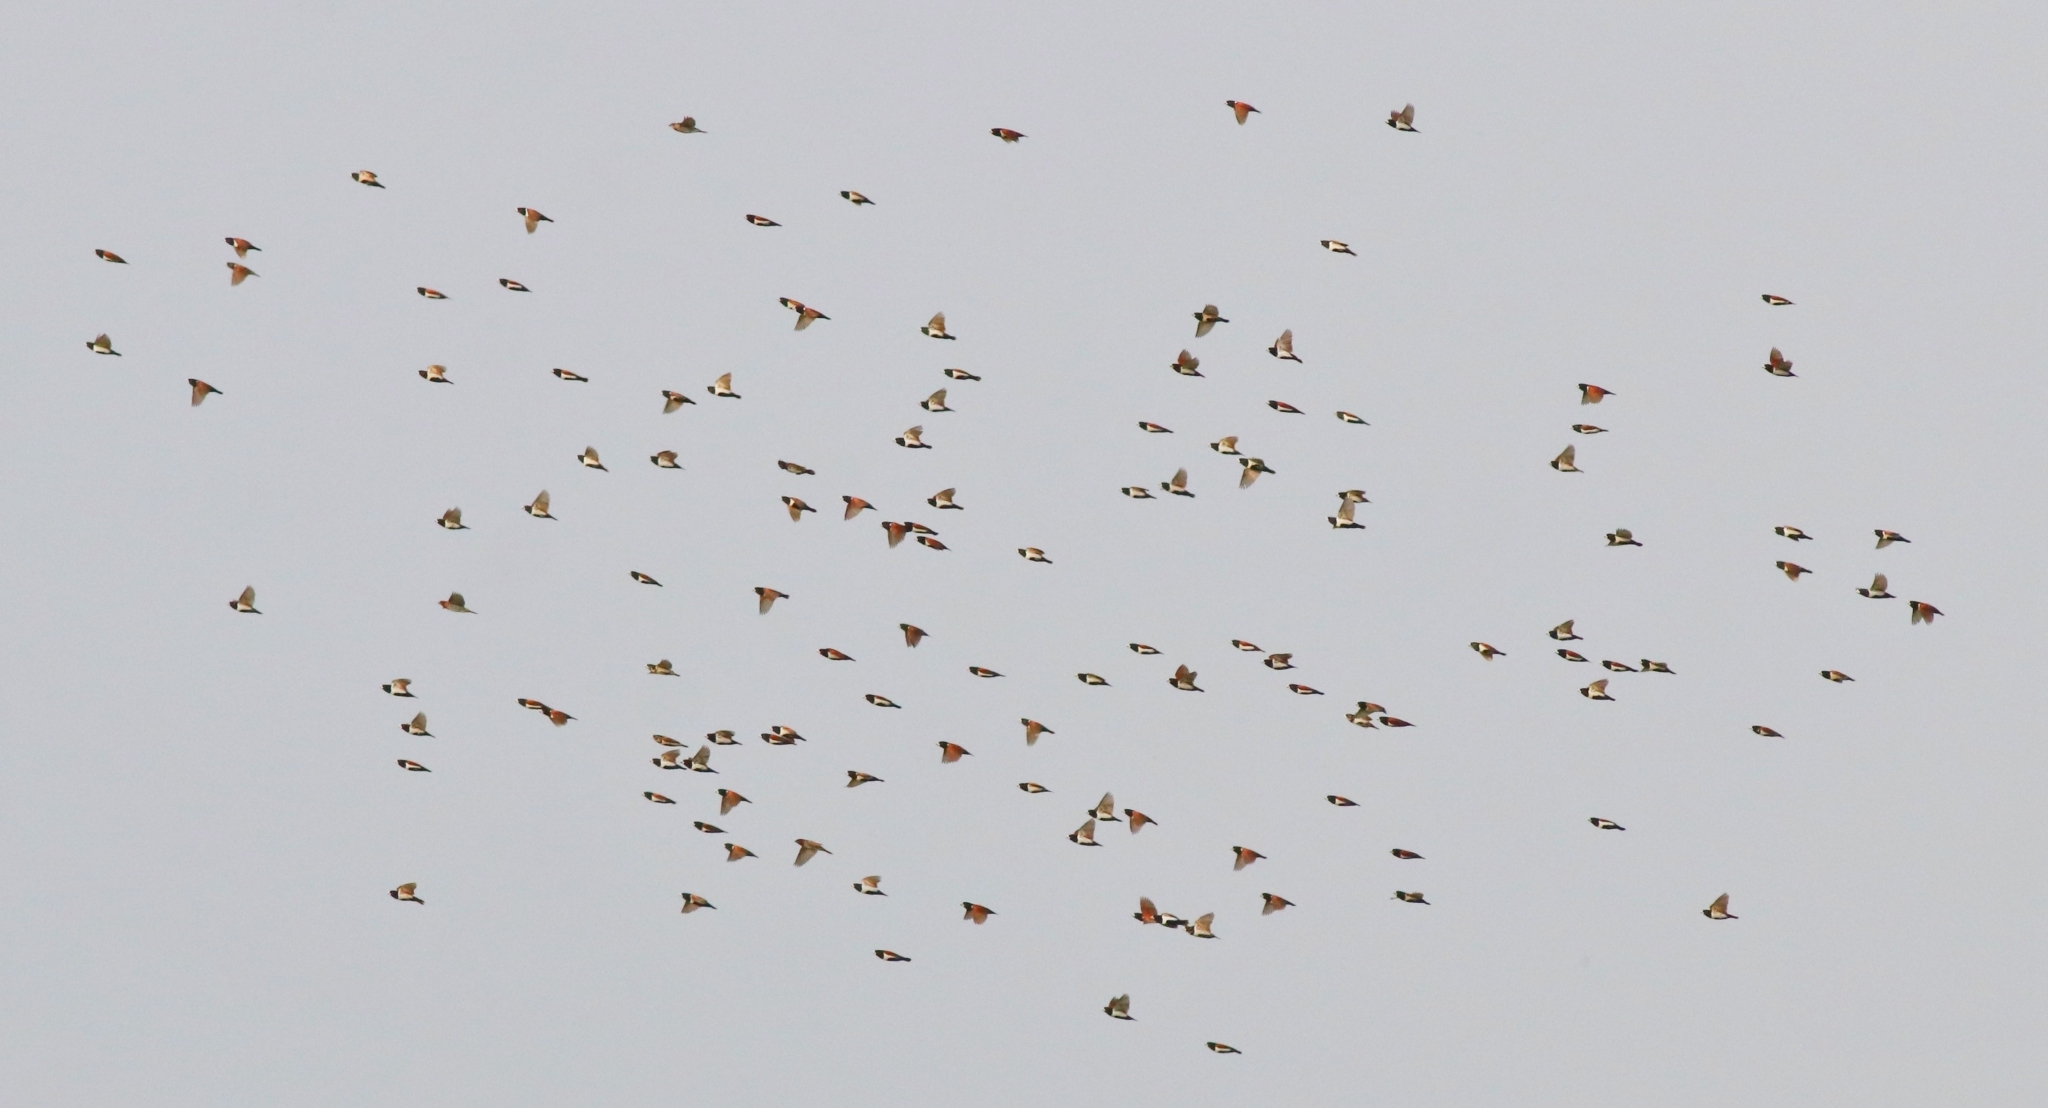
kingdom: Animalia
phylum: Chordata
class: Aves
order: Passeriformes
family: Estrildidae
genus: Lonchura
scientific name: Lonchura malacca
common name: Tricolored munia
